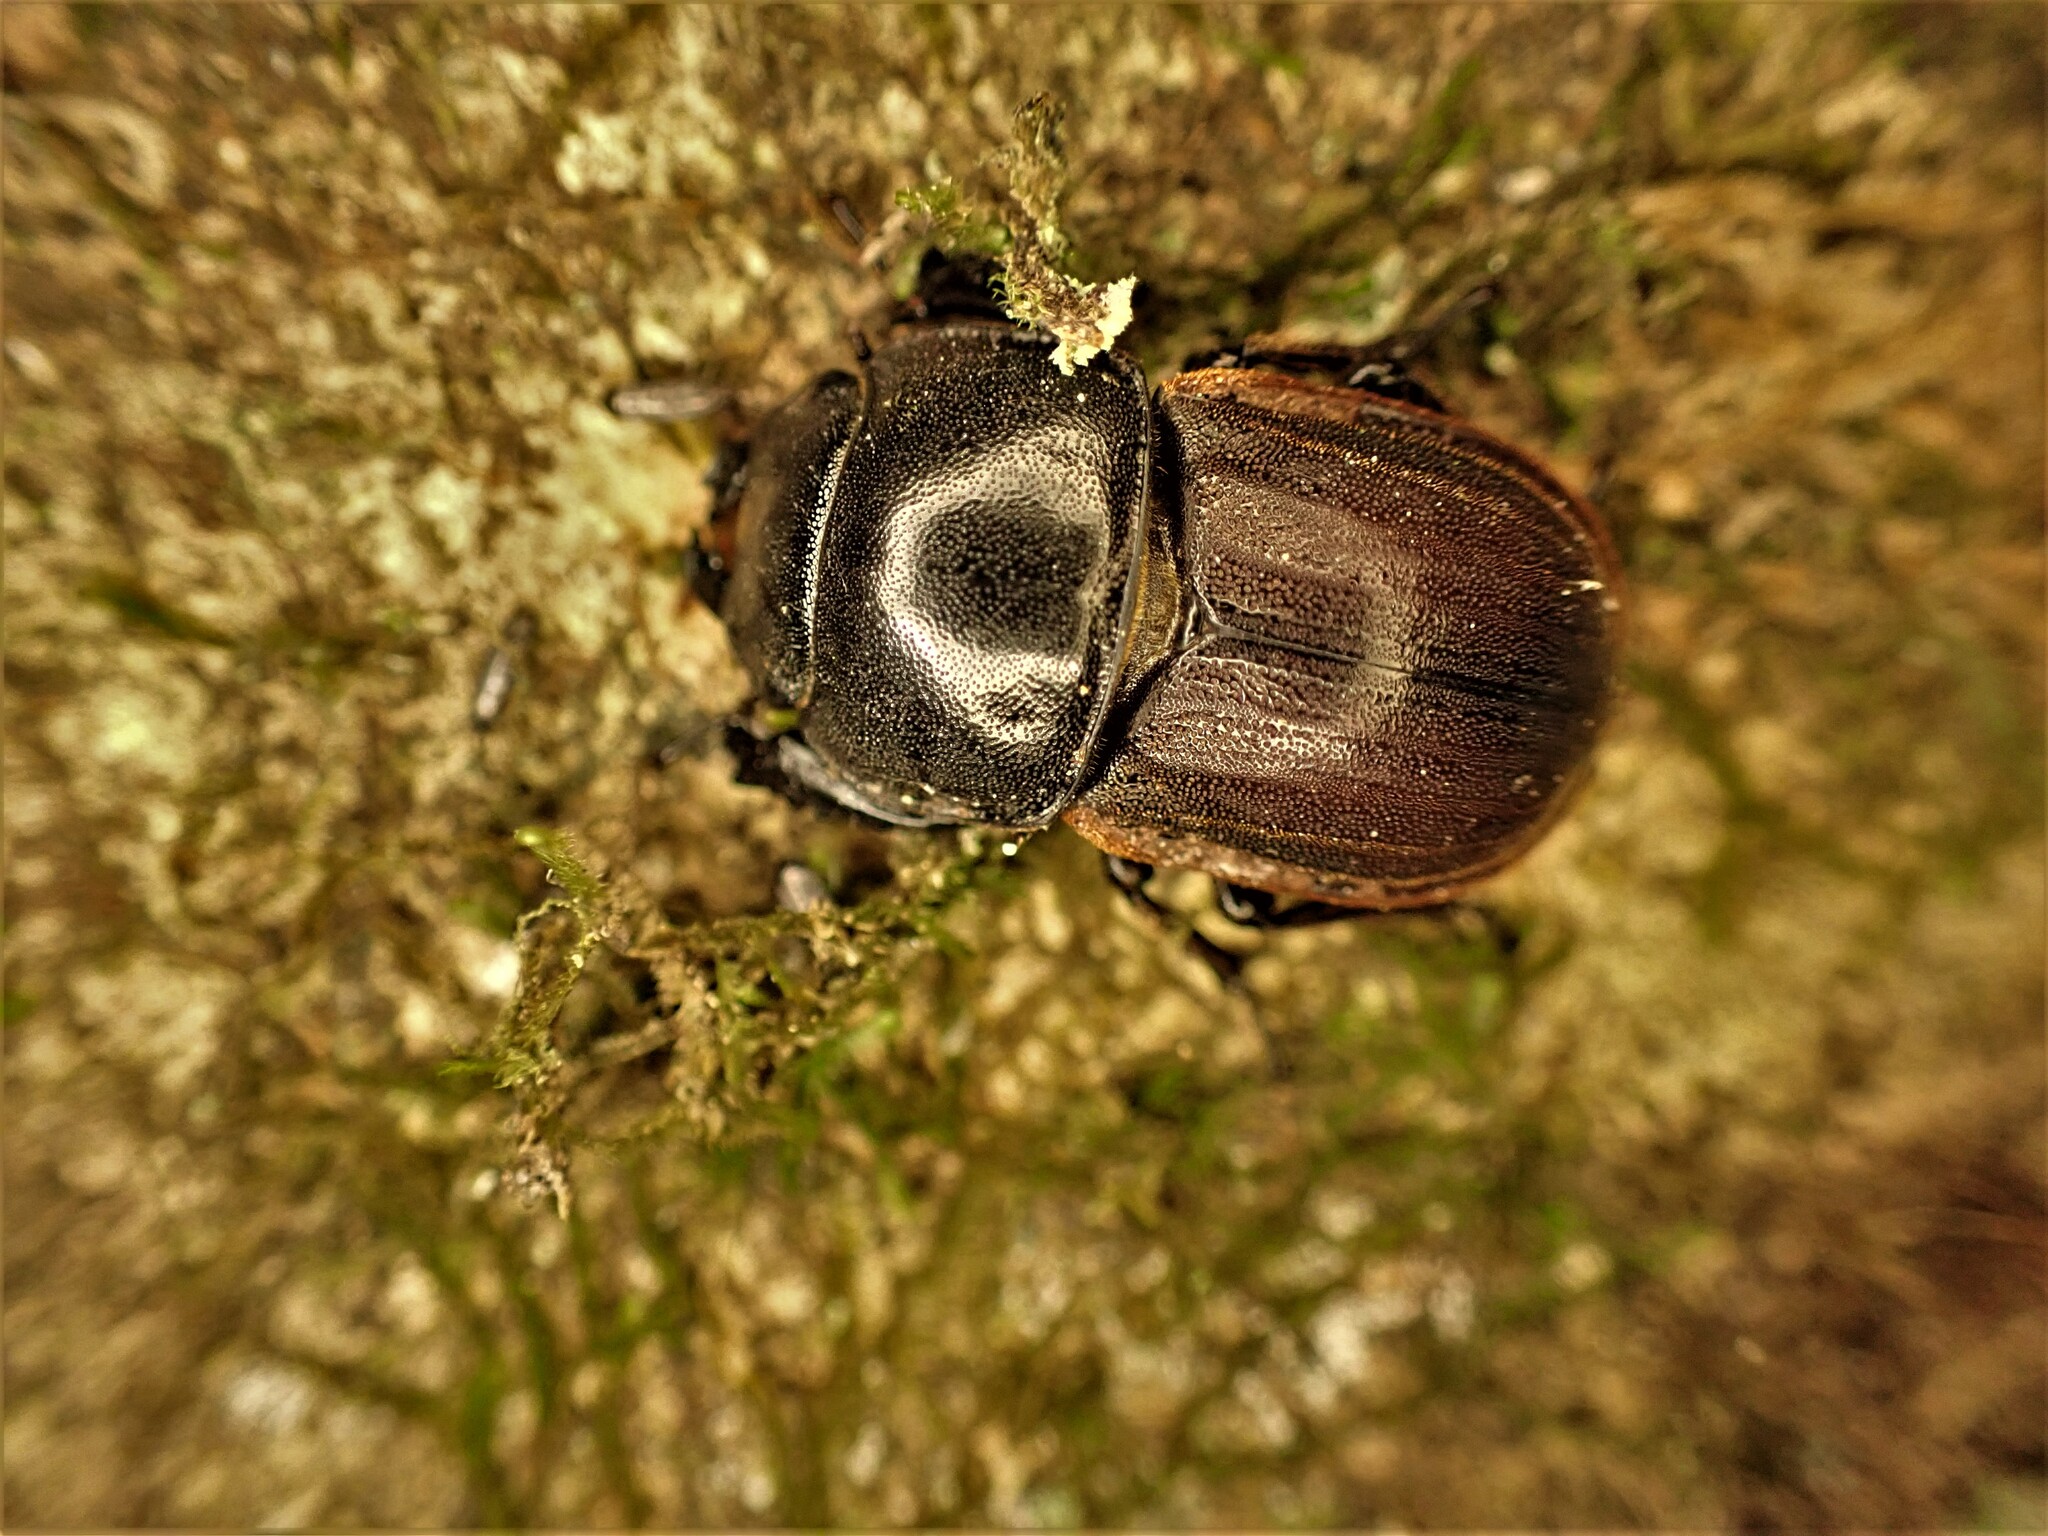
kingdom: Animalia
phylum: Arthropoda
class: Insecta
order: Coleoptera
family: Lucanidae
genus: Geodorcus
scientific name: Geodorcus helmsi
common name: Helm's stag beetle
